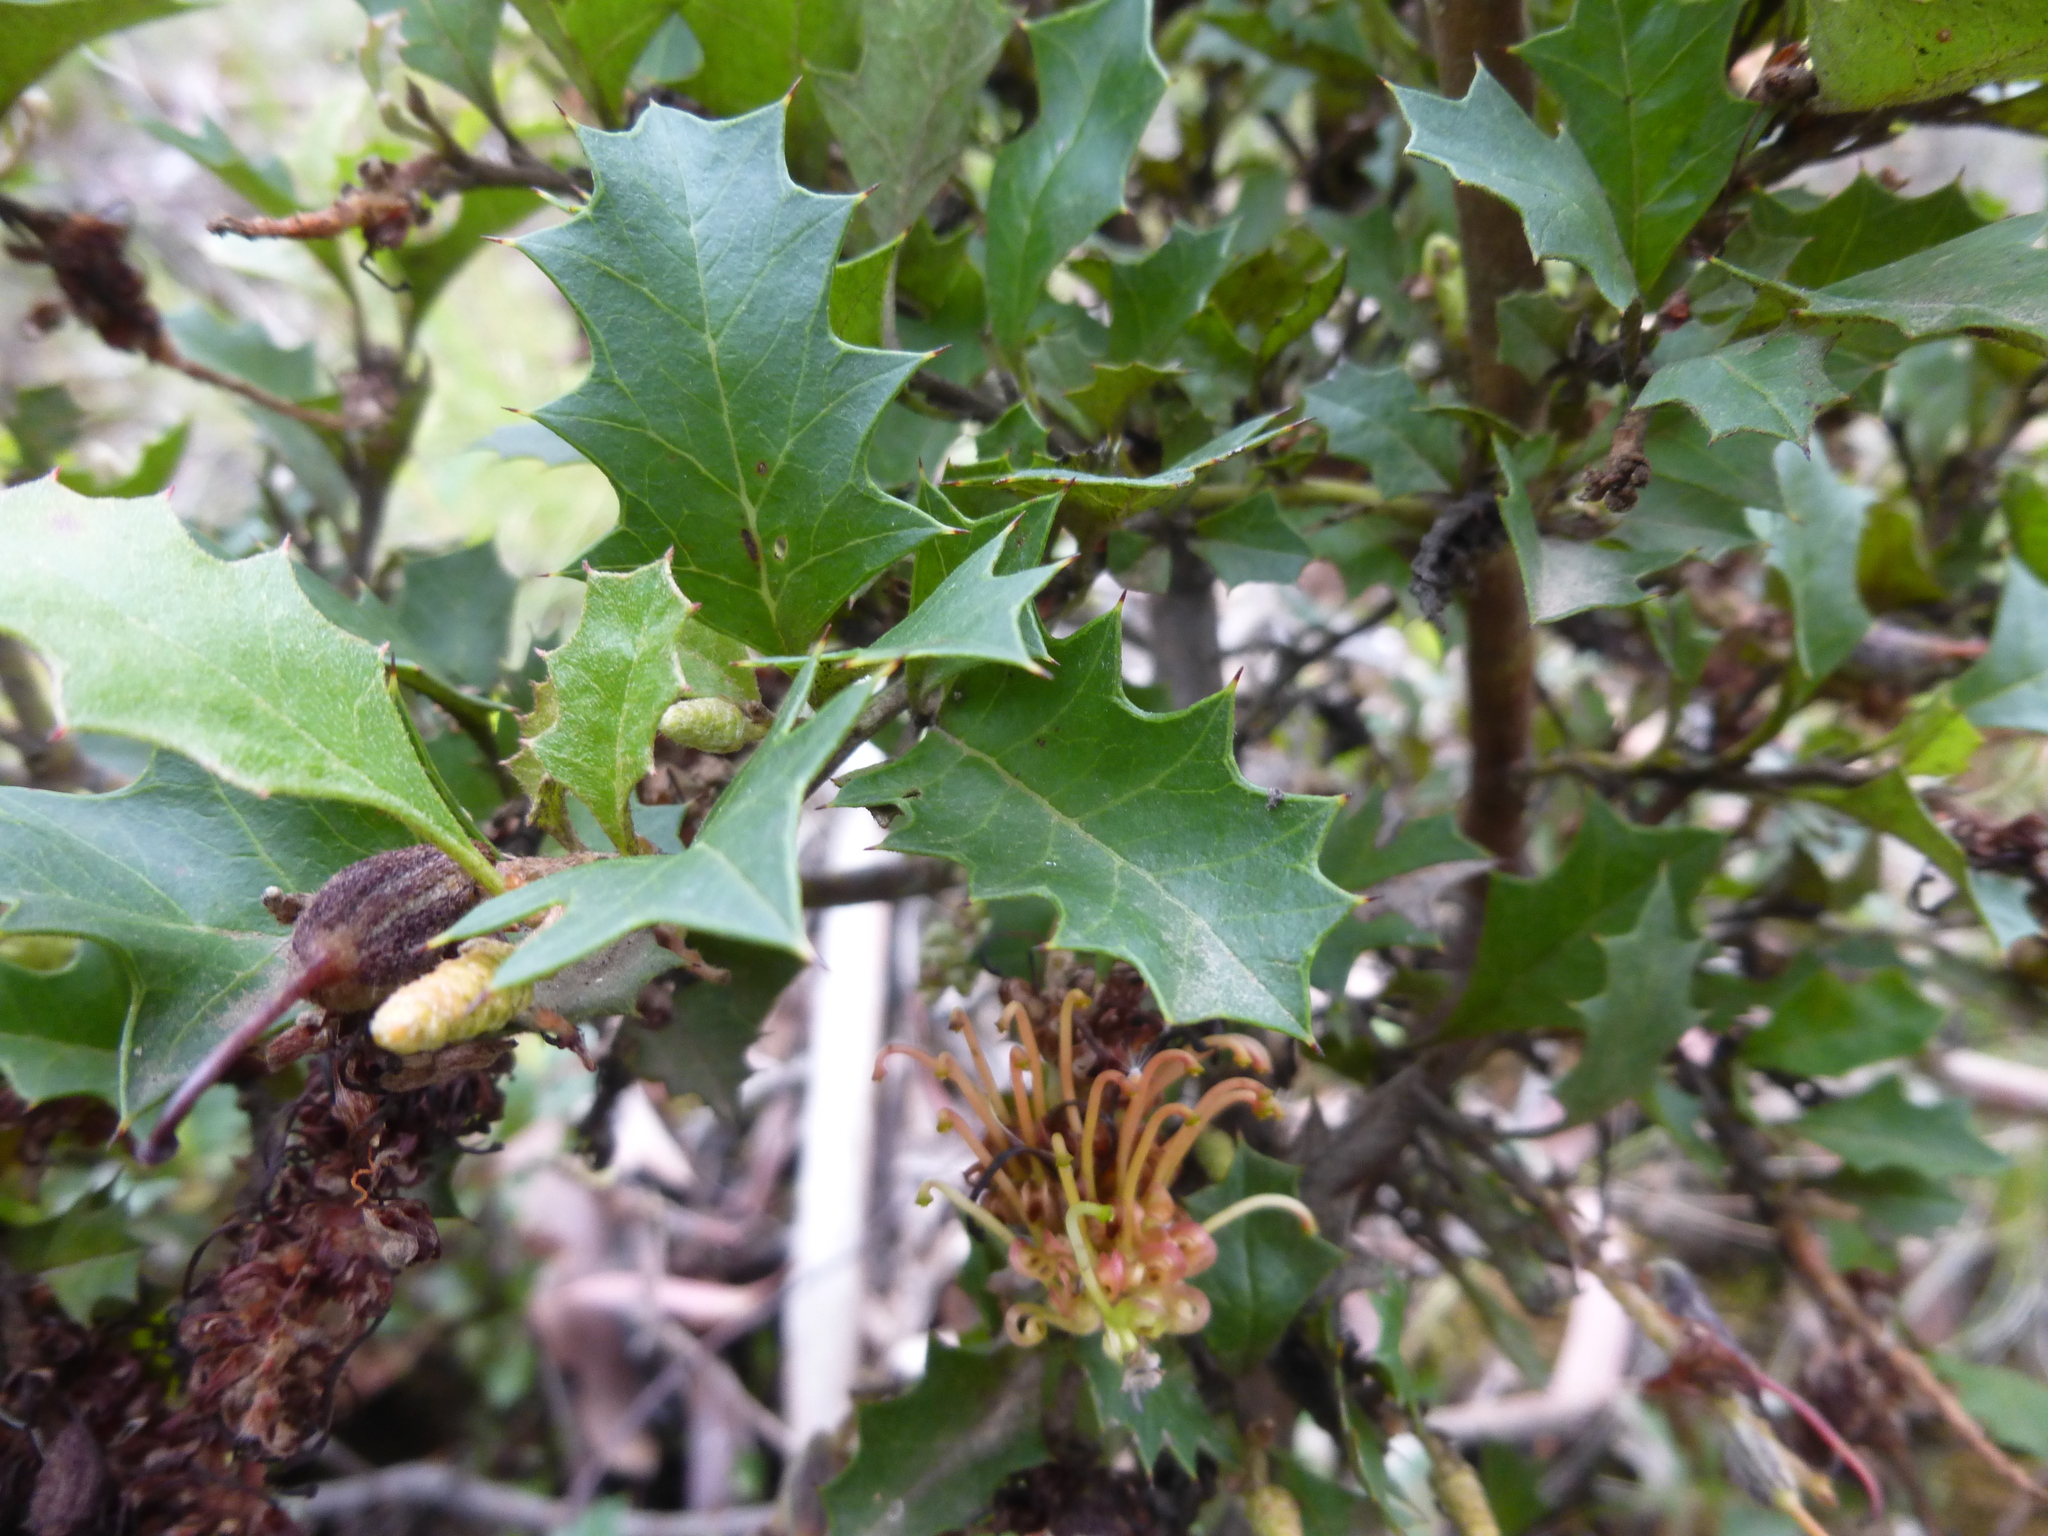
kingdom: Plantae
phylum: Tracheophyta
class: Magnoliopsida
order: Proteales
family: Proteaceae
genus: Grevillea
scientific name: Grevillea bedggoodiana
